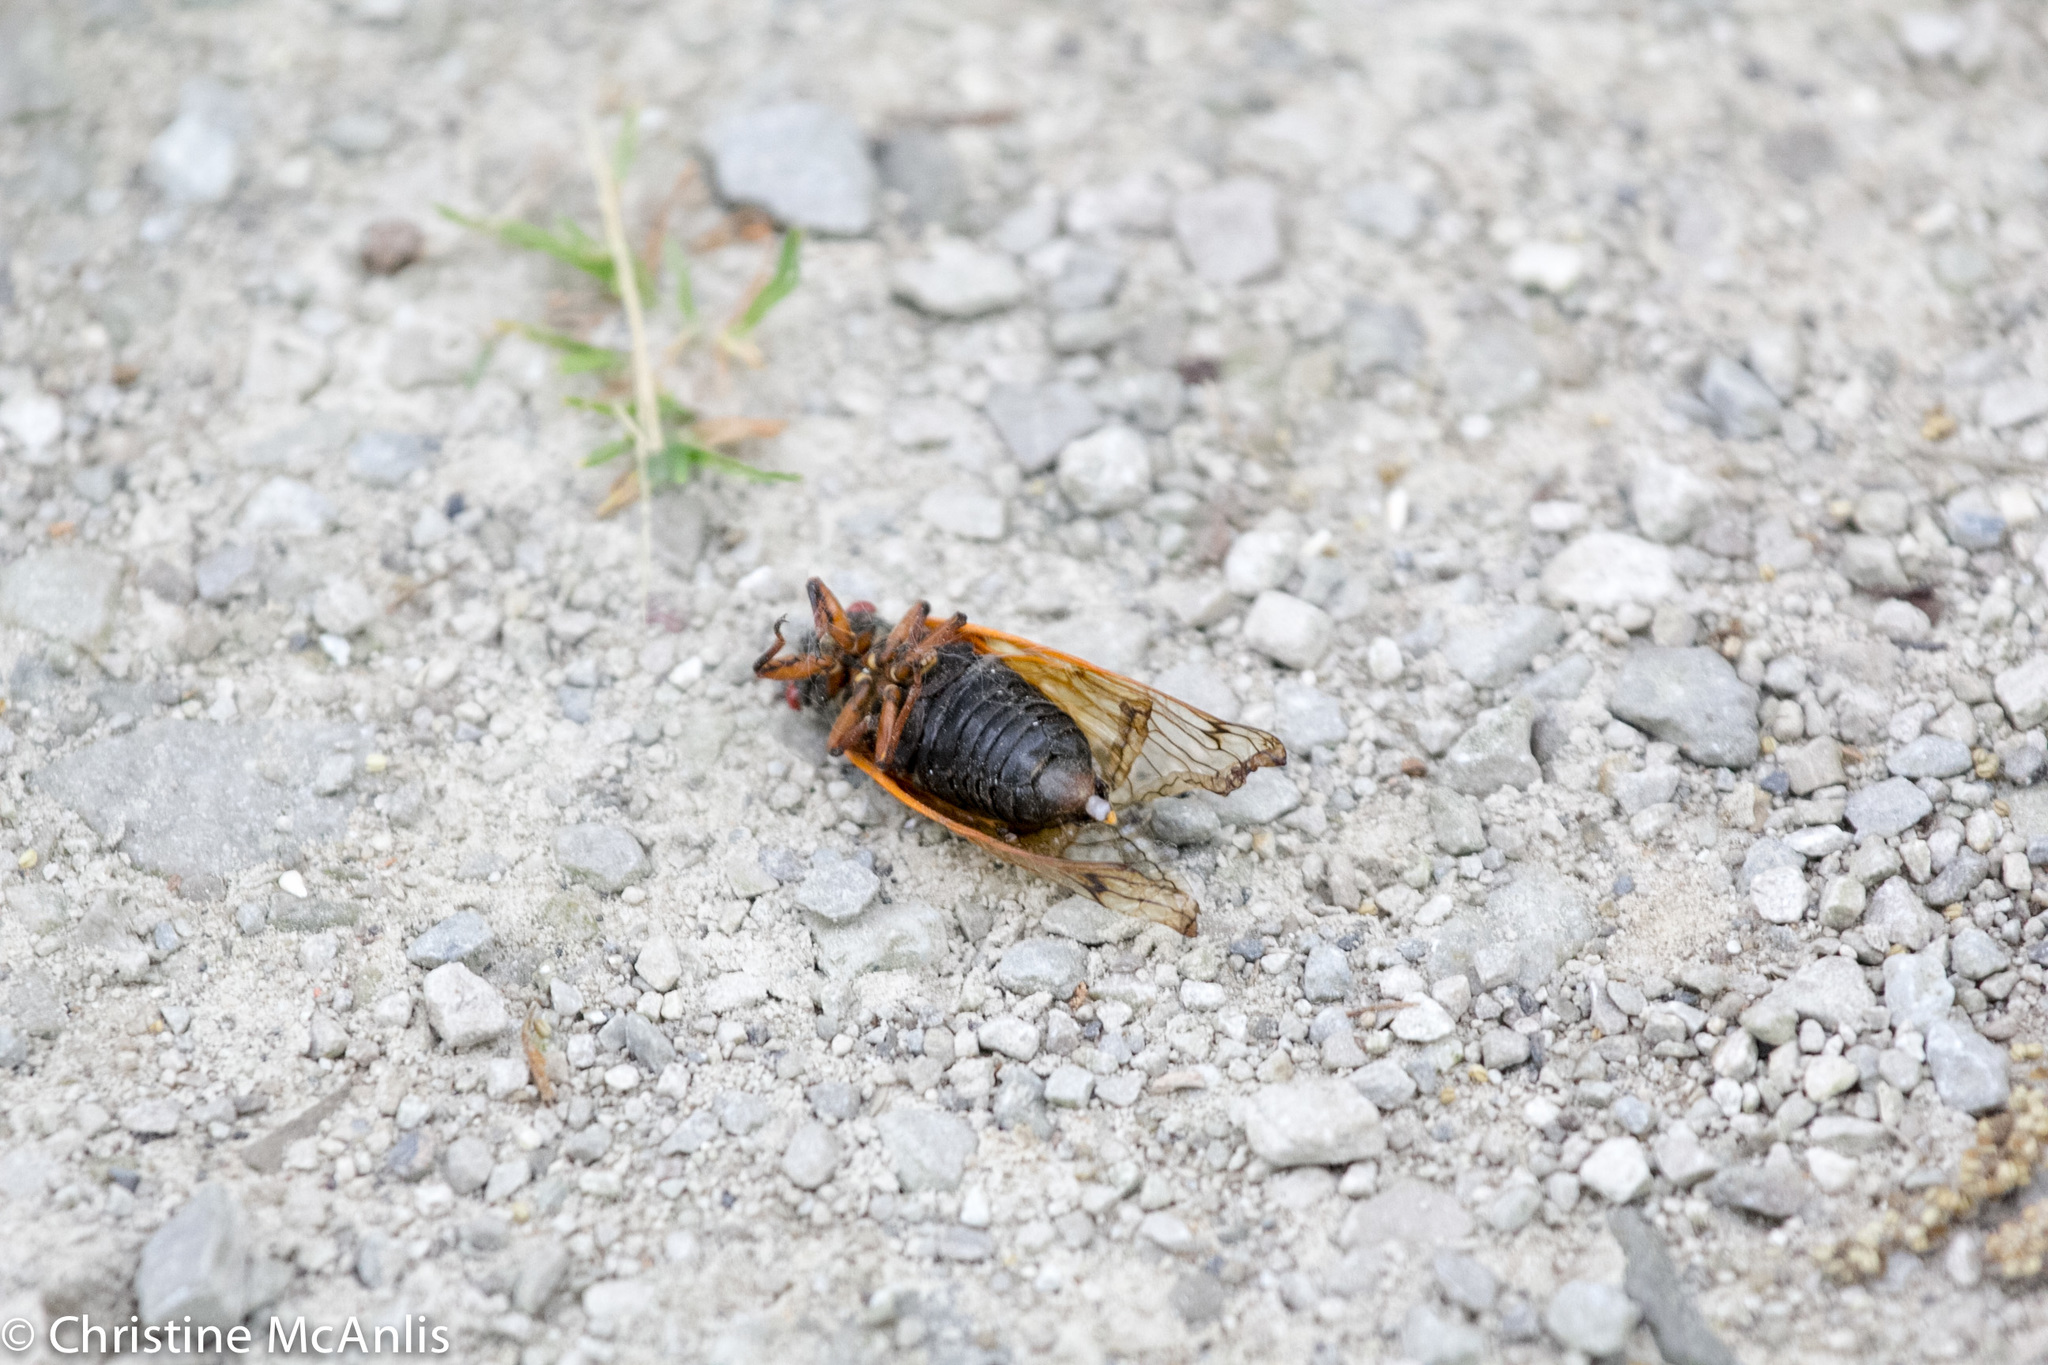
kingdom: Animalia
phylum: Arthropoda
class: Insecta
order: Hemiptera
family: Cicadidae
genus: Magicicada
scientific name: Magicicada cassini
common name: Cassin's 17-year cicada
